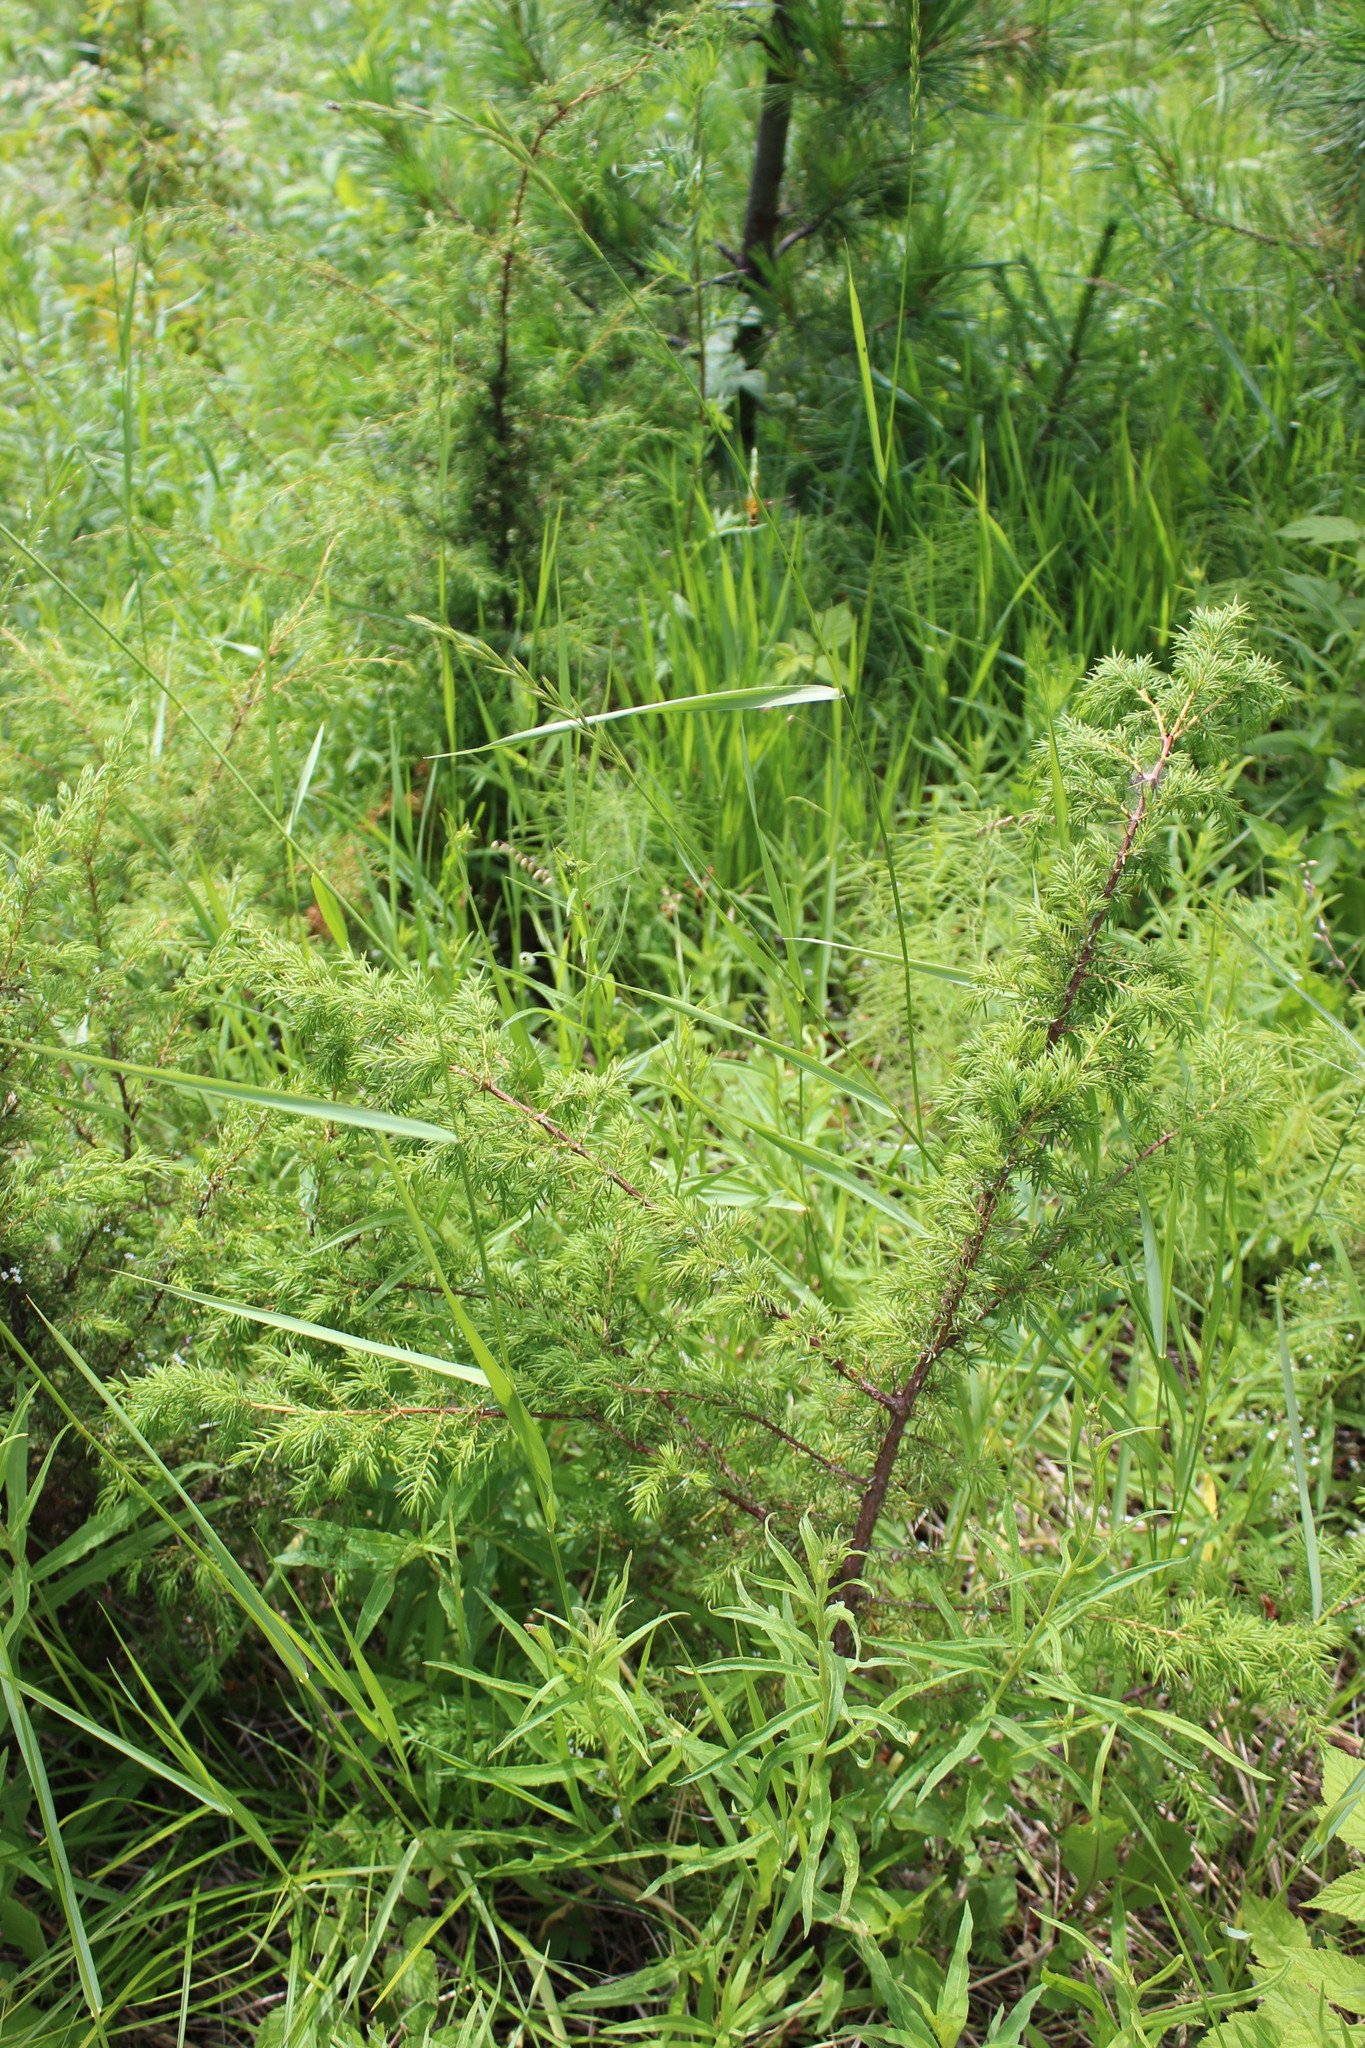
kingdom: Plantae
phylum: Tracheophyta
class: Pinopsida
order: Pinales
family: Cupressaceae
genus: Juniperus
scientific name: Juniperus communis
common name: Common juniper
